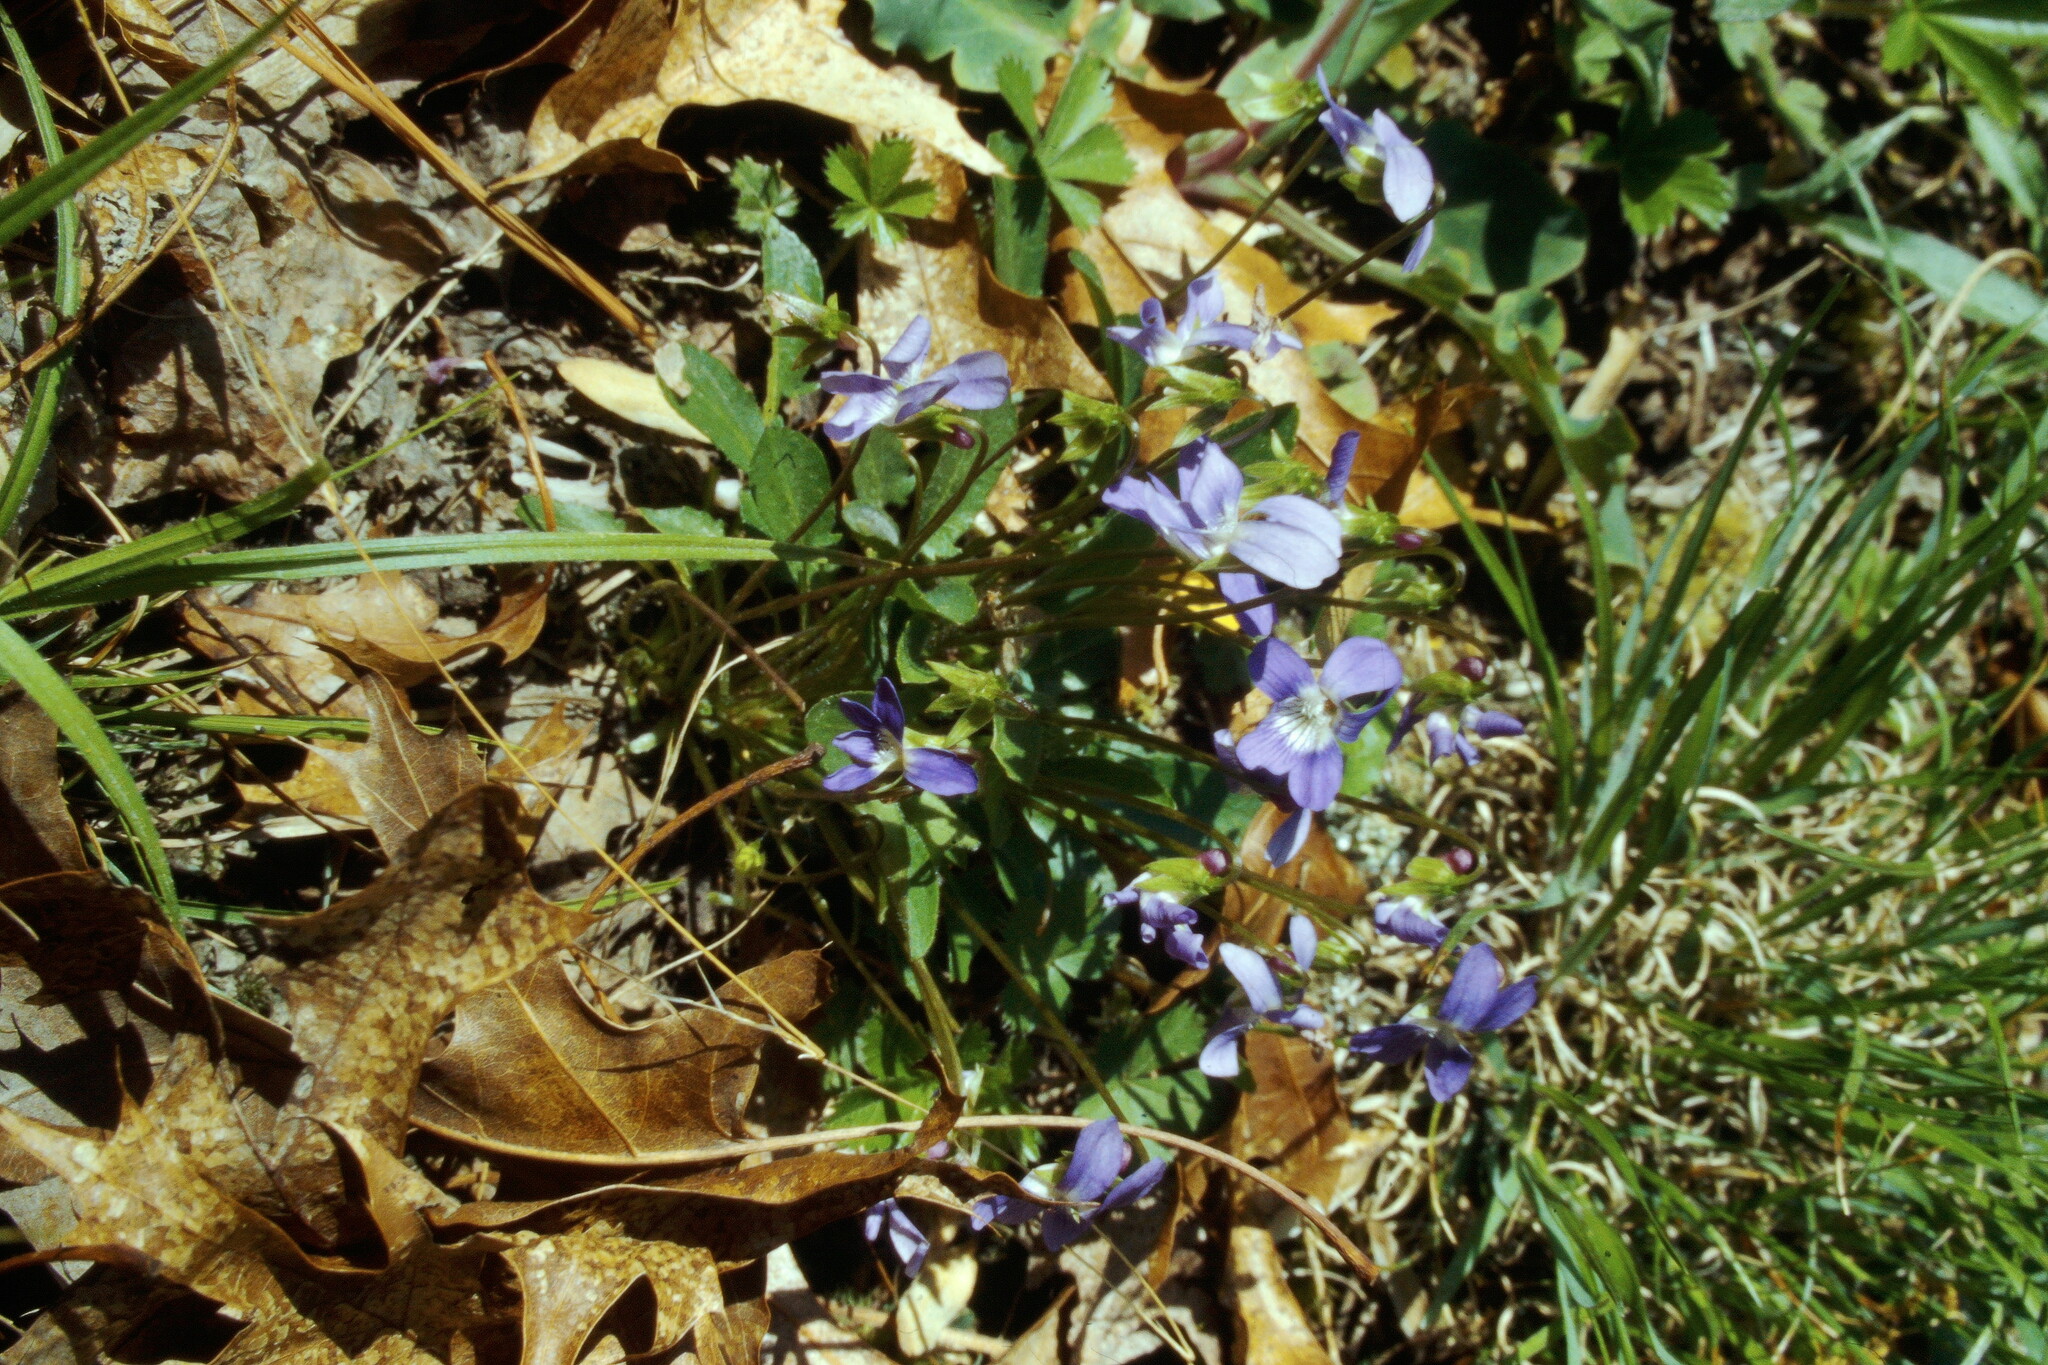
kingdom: Plantae
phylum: Tracheophyta
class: Magnoliopsida
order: Malpighiales
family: Violaceae
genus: Viola
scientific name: Viola sagittata
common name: Arrowhead violet
